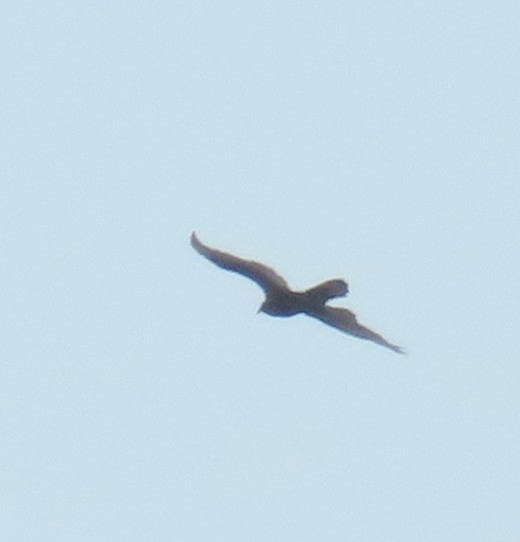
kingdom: Animalia
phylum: Chordata
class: Aves
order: Accipitriformes
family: Cathartidae
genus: Cathartes
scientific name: Cathartes aura
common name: Turkey vulture
